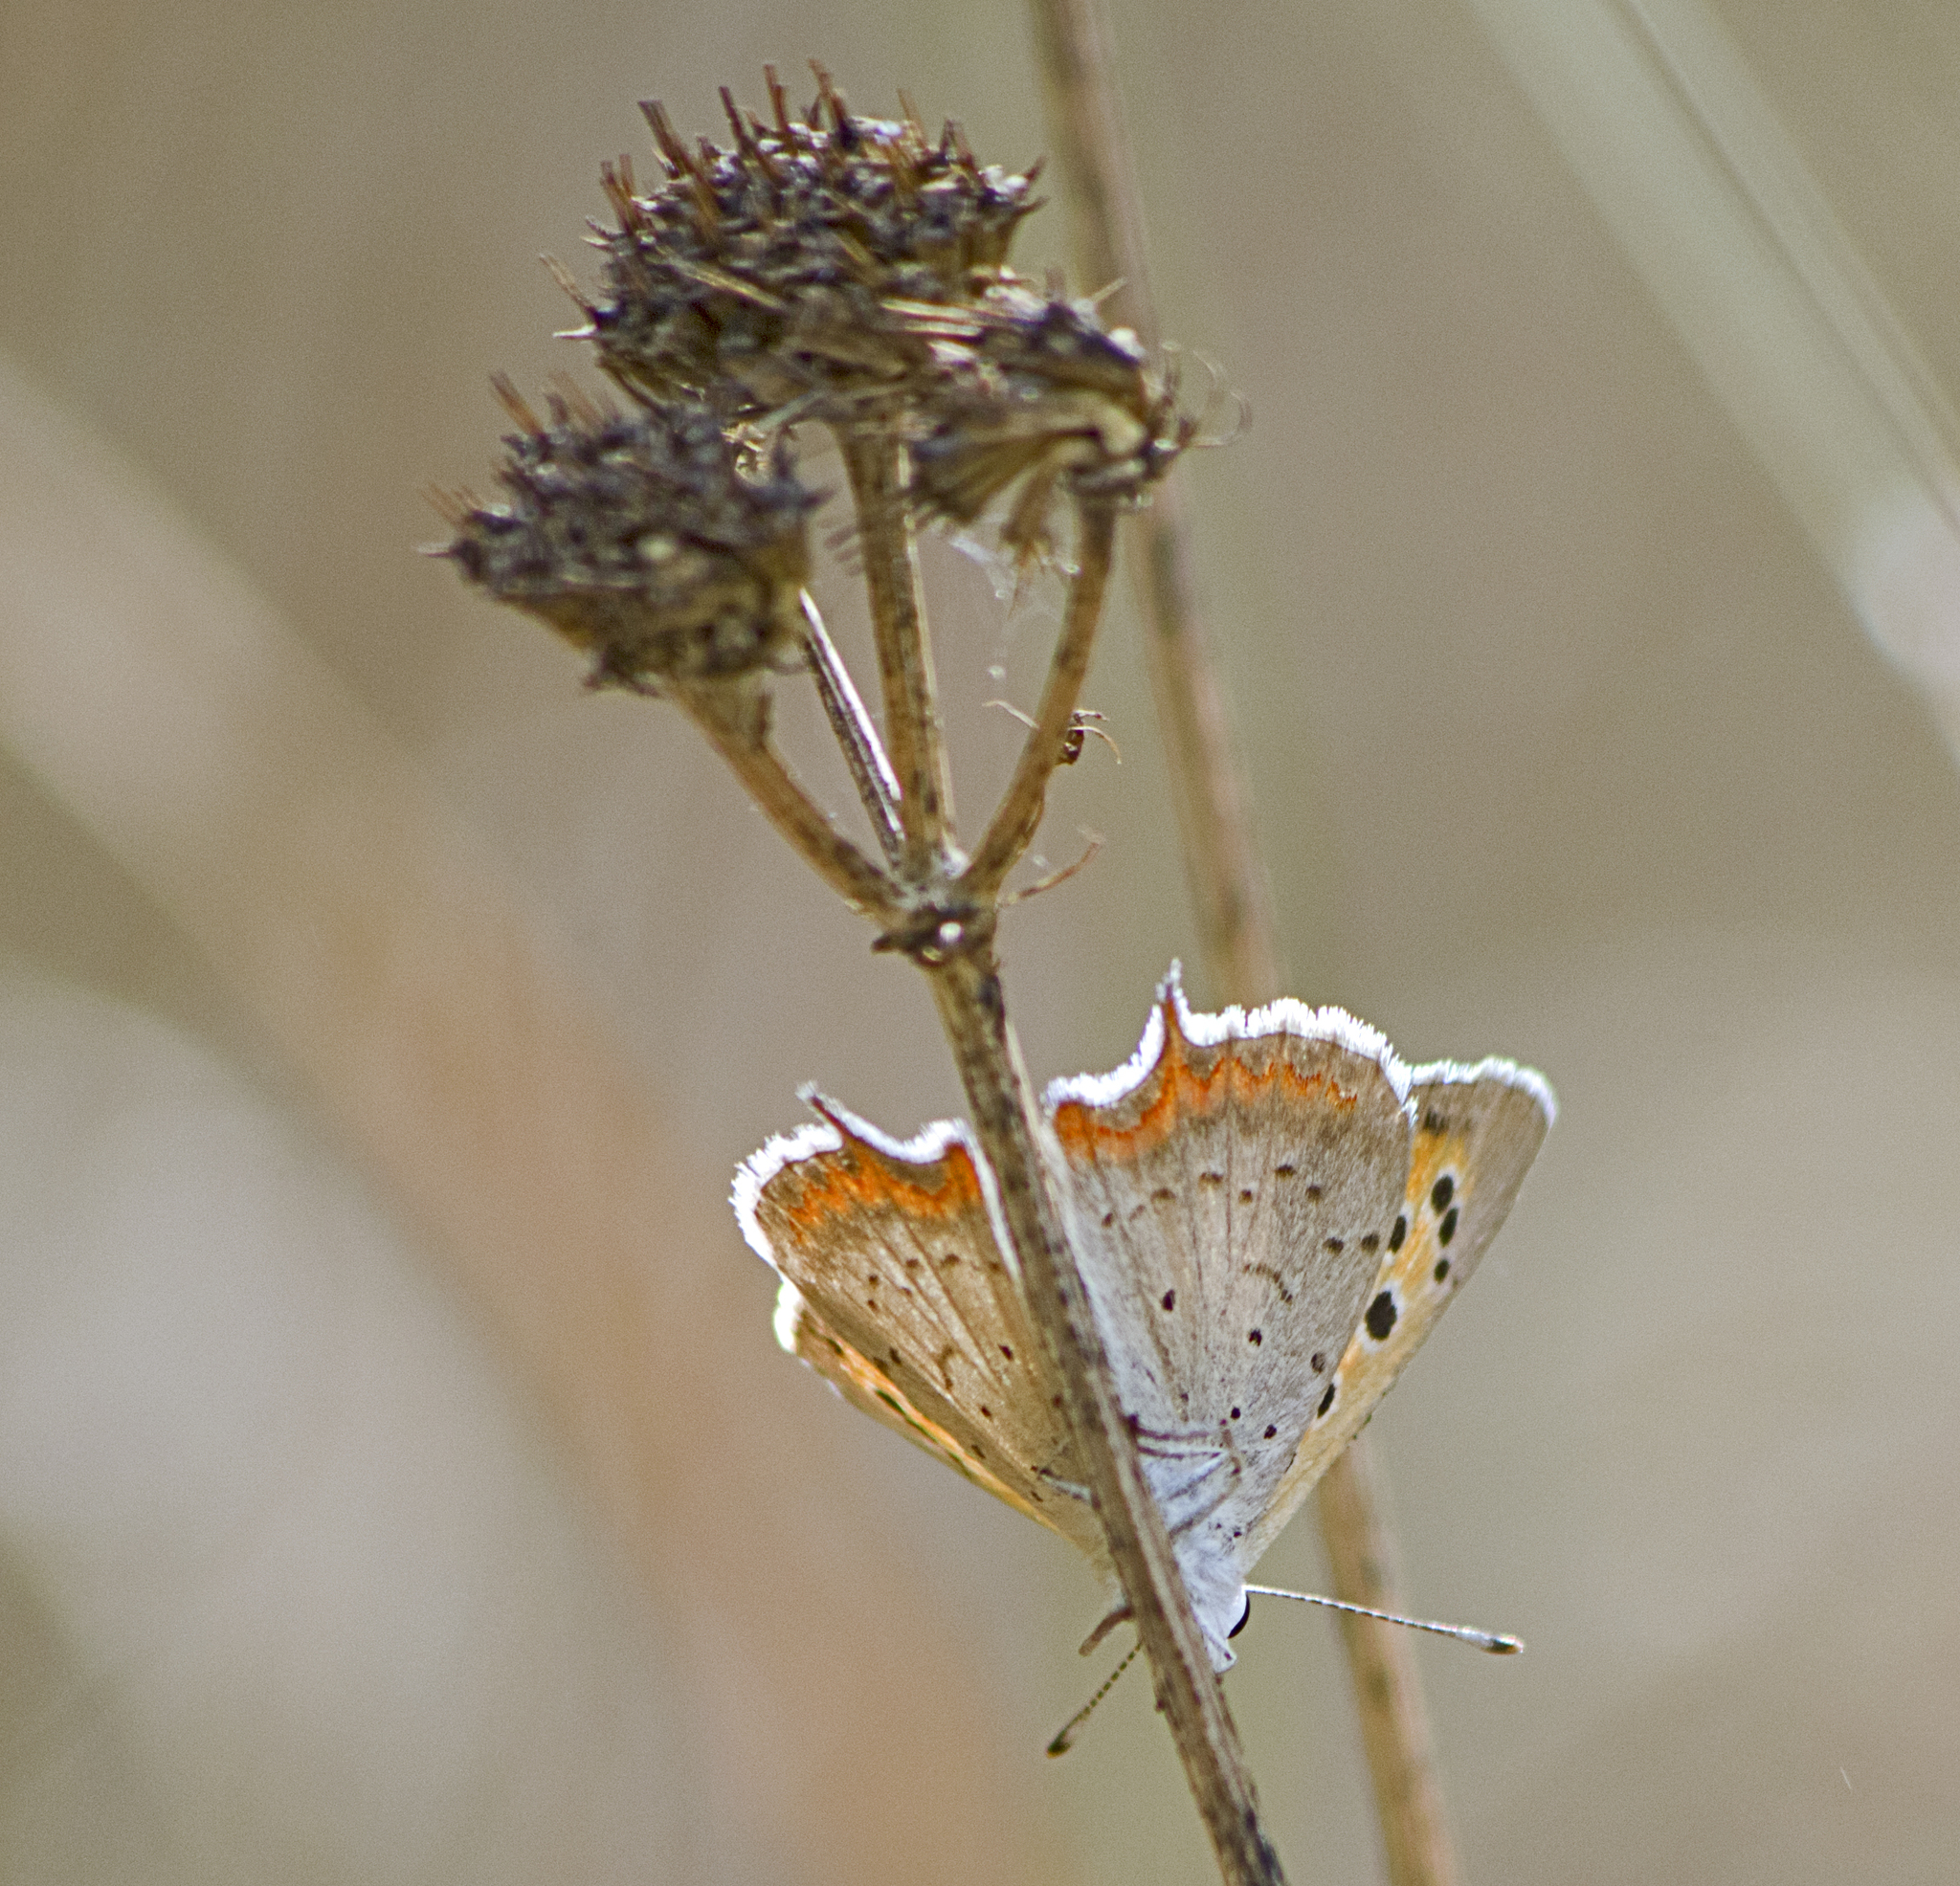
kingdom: Animalia
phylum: Arthropoda
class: Insecta
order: Lepidoptera
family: Lycaenidae
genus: Lycaena
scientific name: Lycaena phlaeas
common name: Small copper
